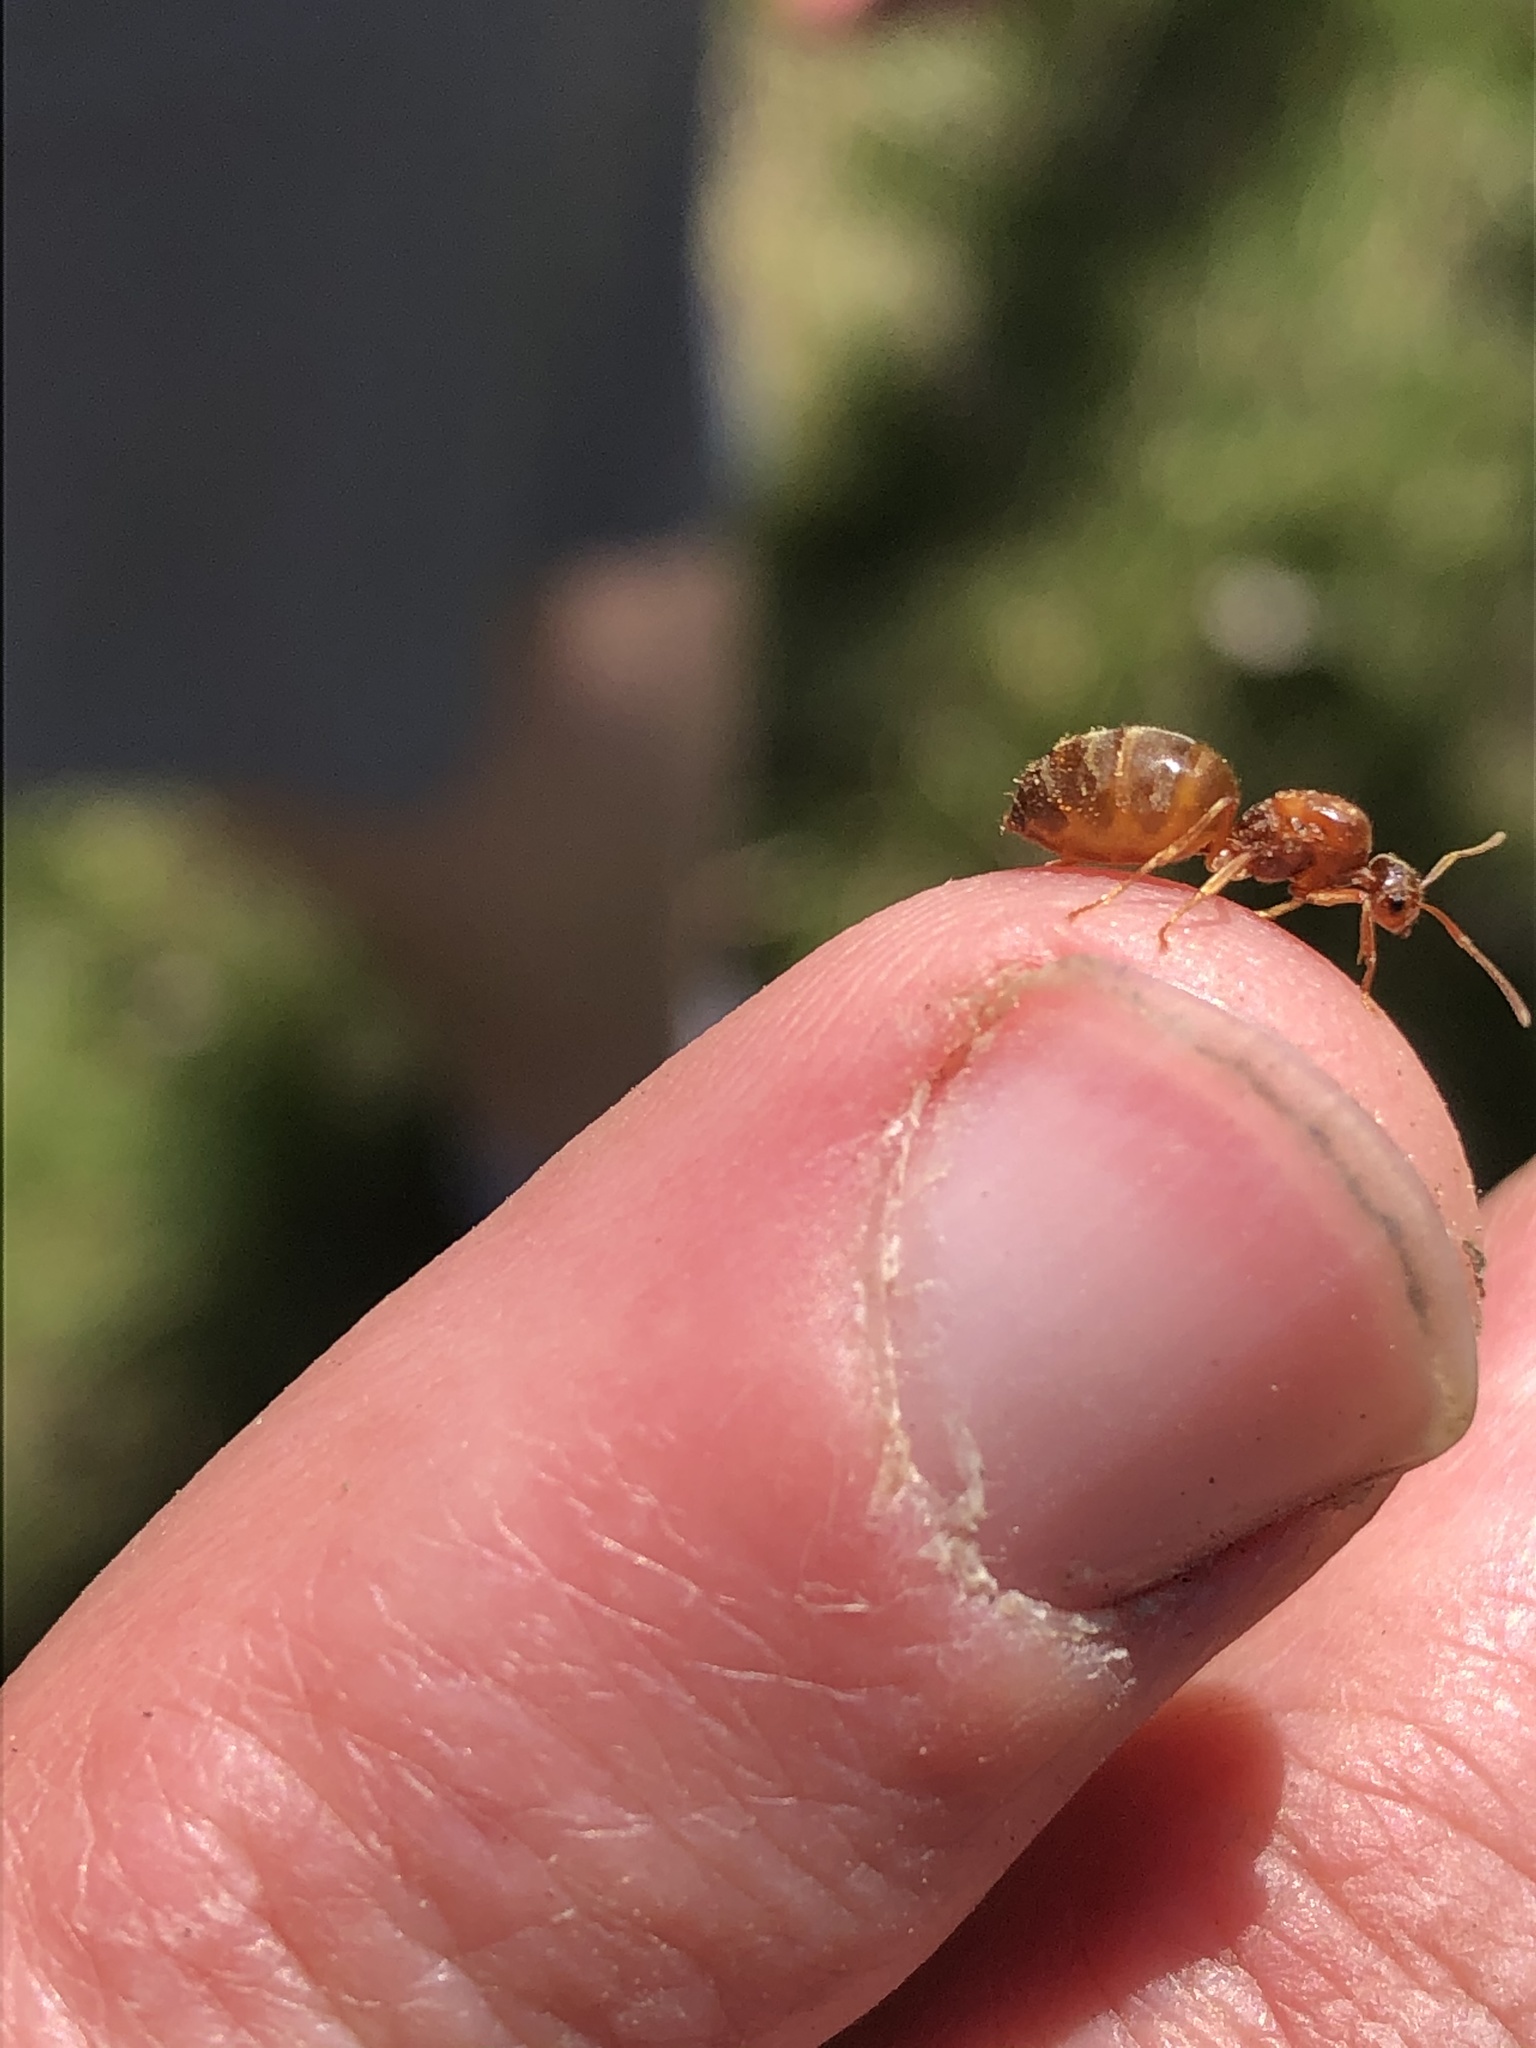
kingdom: Animalia
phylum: Arthropoda
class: Insecta
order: Hymenoptera
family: Formicidae
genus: Prenolepis
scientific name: Prenolepis imparis
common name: Small honey ant
